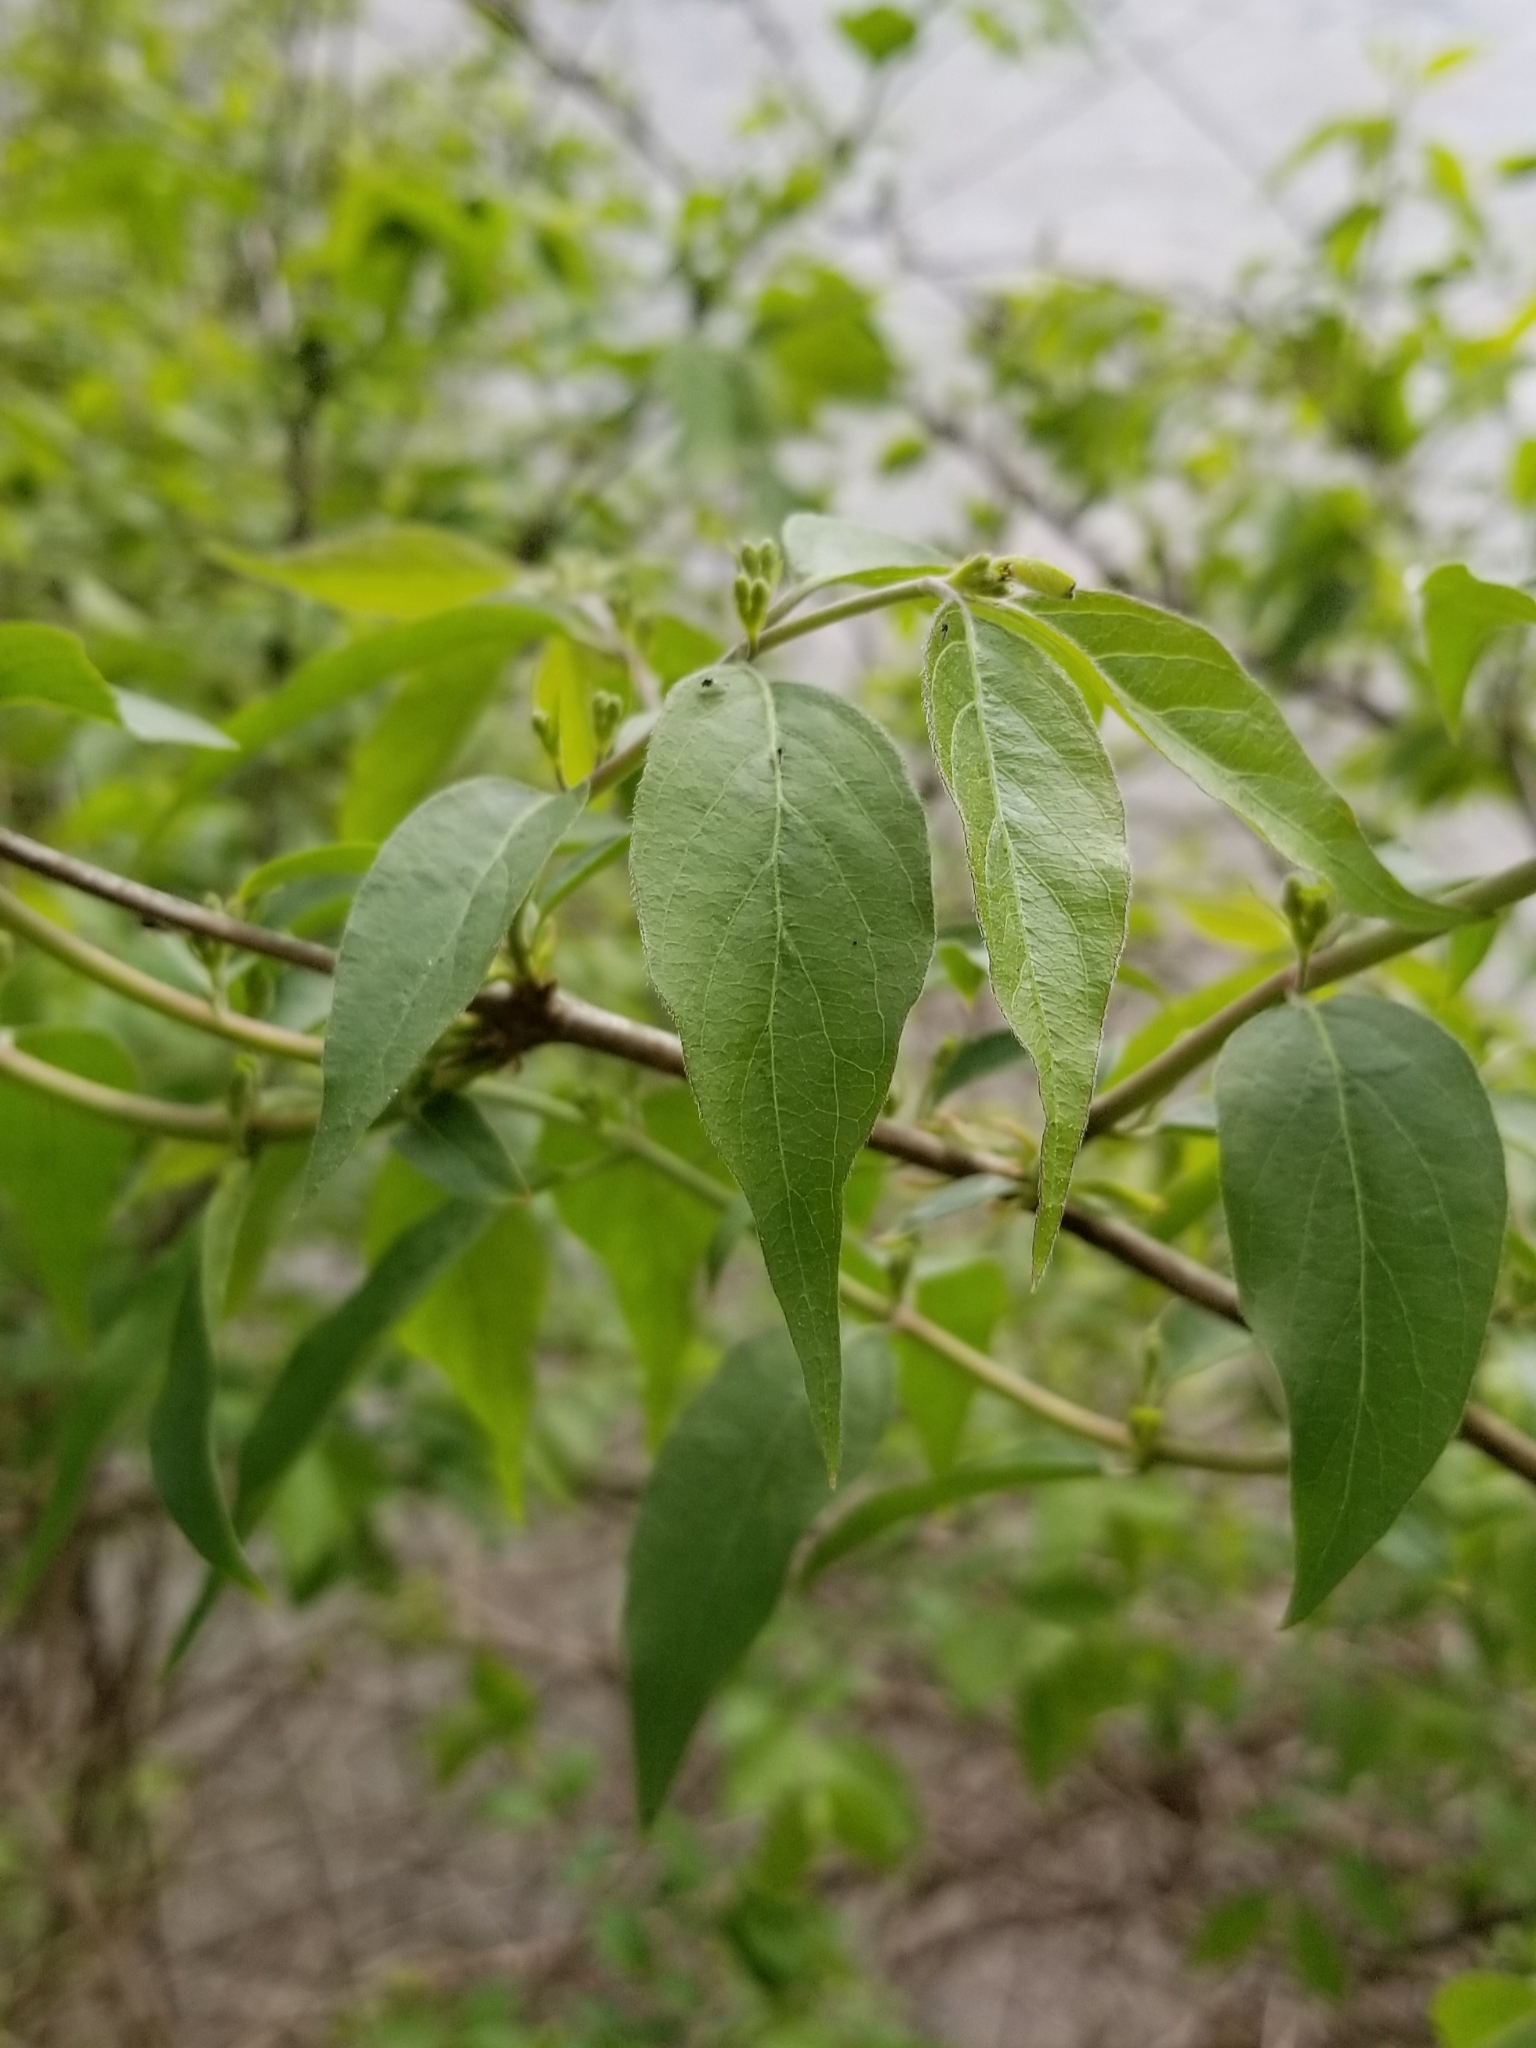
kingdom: Plantae
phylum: Tracheophyta
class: Magnoliopsida
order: Dipsacales
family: Caprifoliaceae
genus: Lonicera
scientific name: Lonicera maackii
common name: Amur honeysuckle
